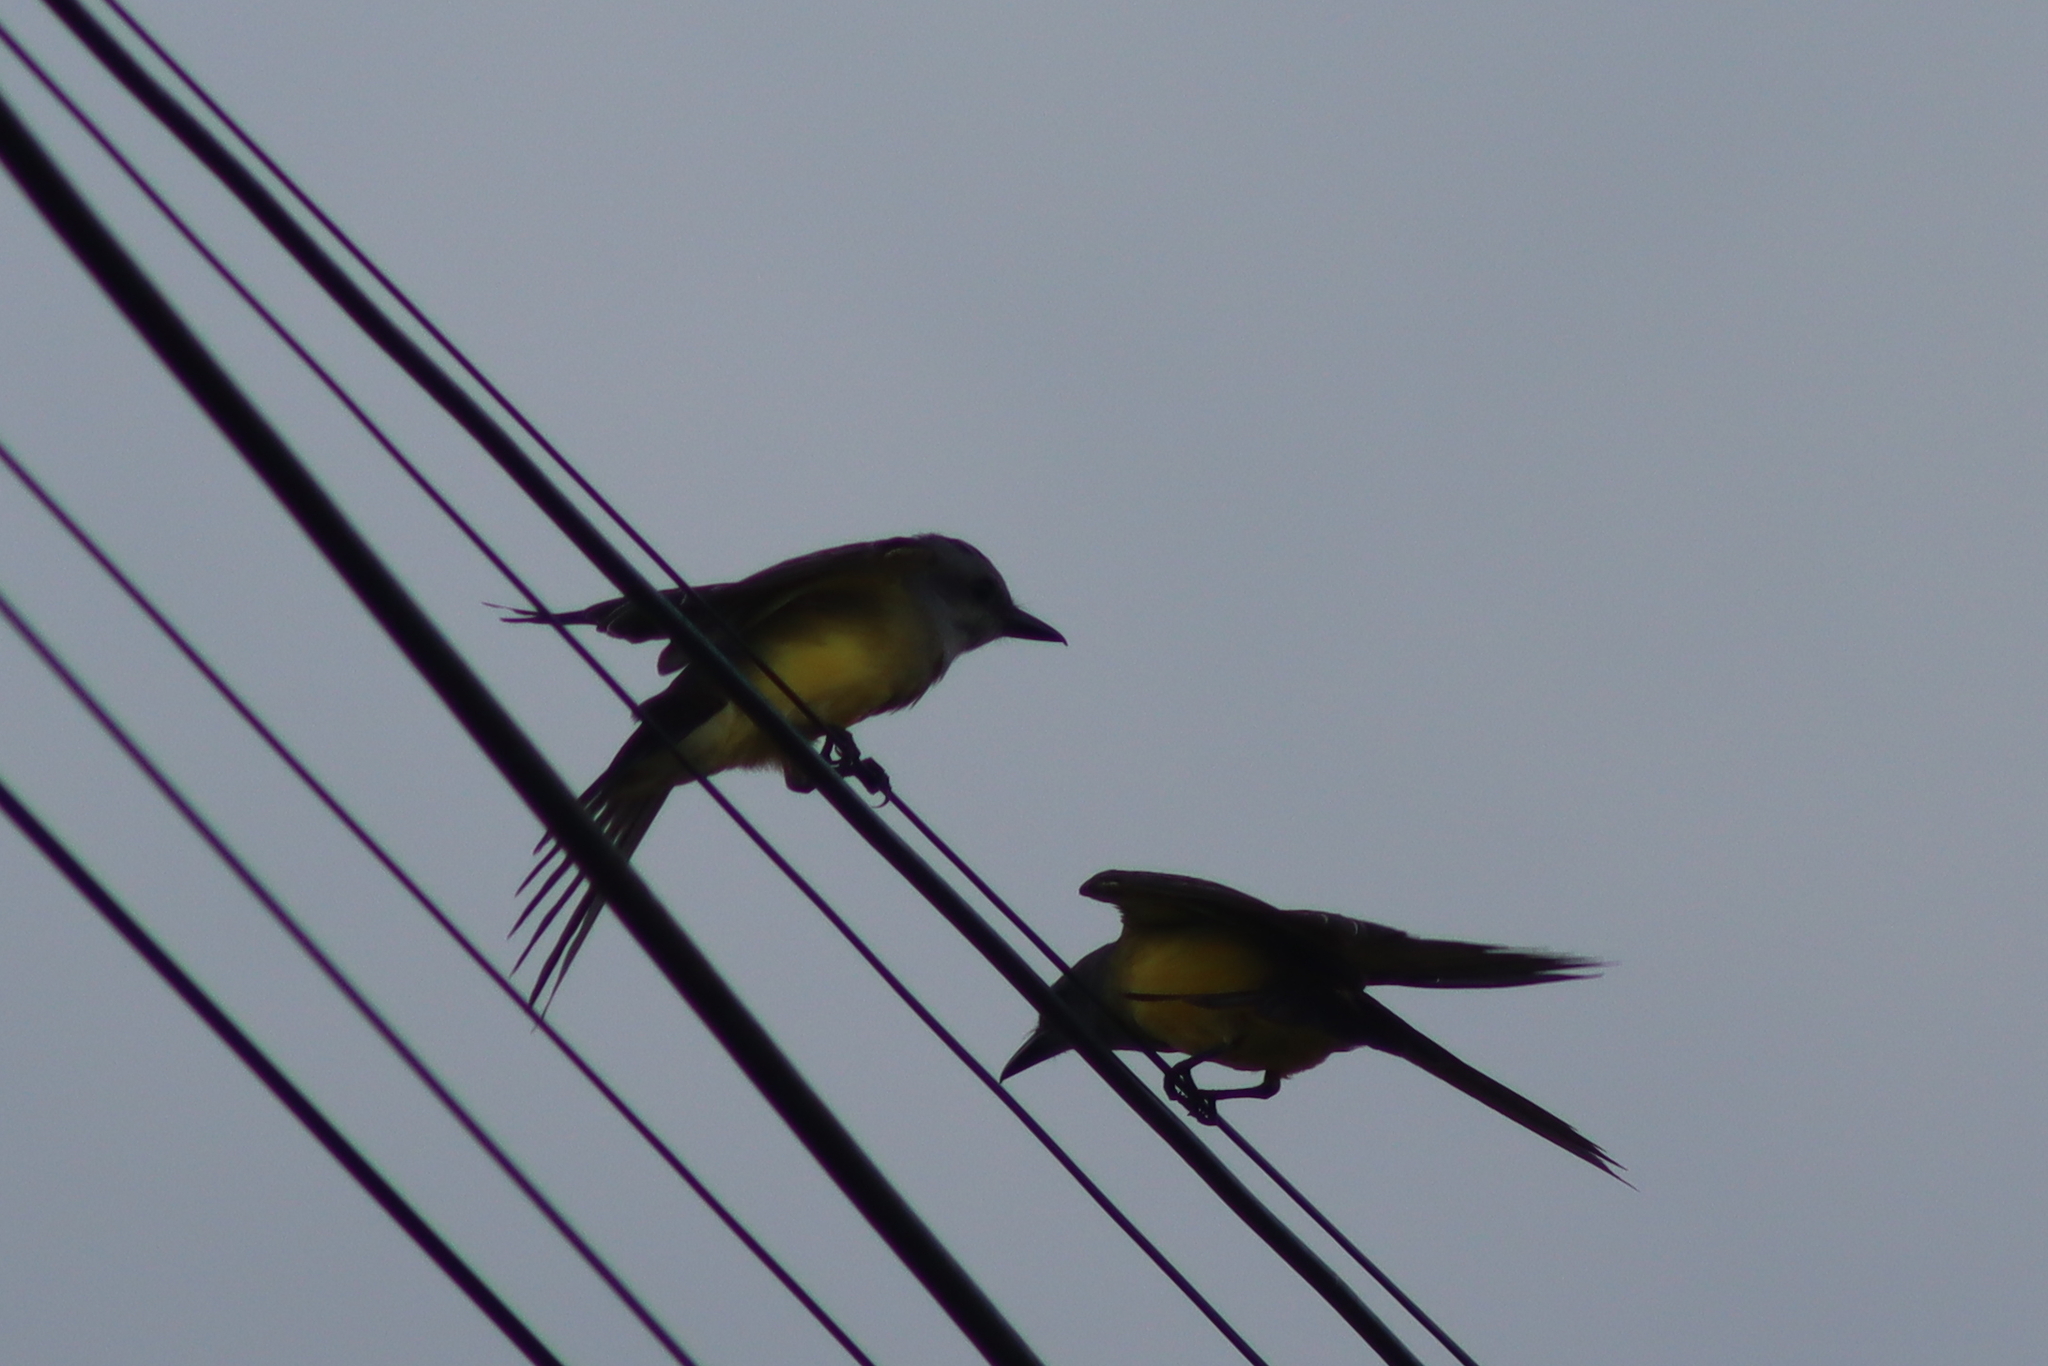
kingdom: Animalia
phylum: Chordata
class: Aves
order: Passeriformes
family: Tyrannidae
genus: Tyrannus
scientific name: Tyrannus melancholicus
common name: Tropical kingbird
